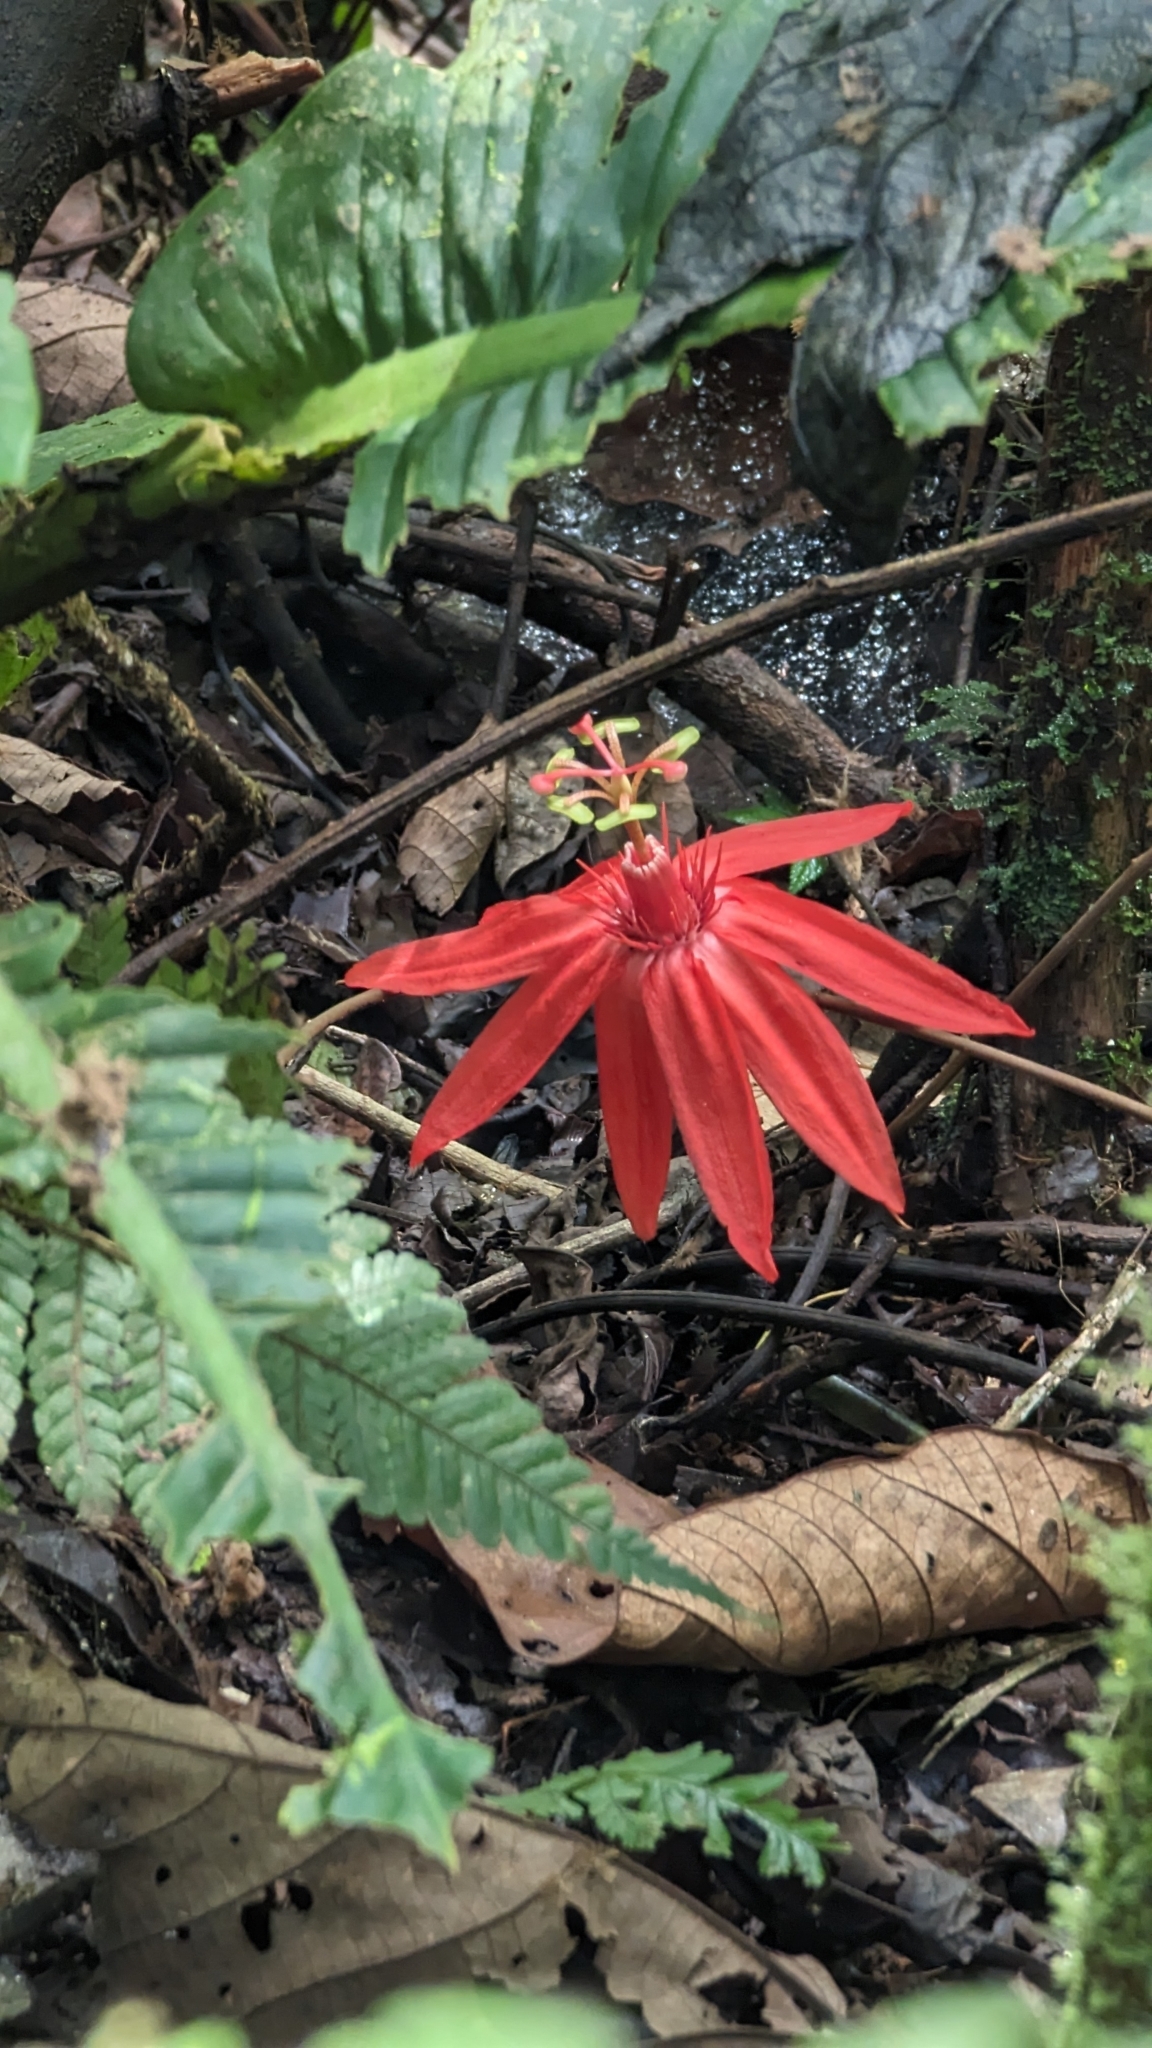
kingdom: Plantae
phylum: Tracheophyta
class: Magnoliopsida
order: Malpighiales
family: Passifloraceae
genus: Passiflora
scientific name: Passiflora vitifolia
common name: Perfumed passionflower
